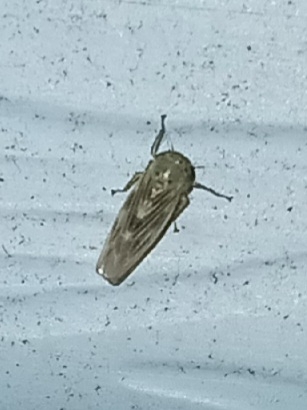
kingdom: Animalia
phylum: Arthropoda
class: Insecta
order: Hemiptera
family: Cicadellidae
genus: Macrosteles
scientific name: Macrosteles parvidens
